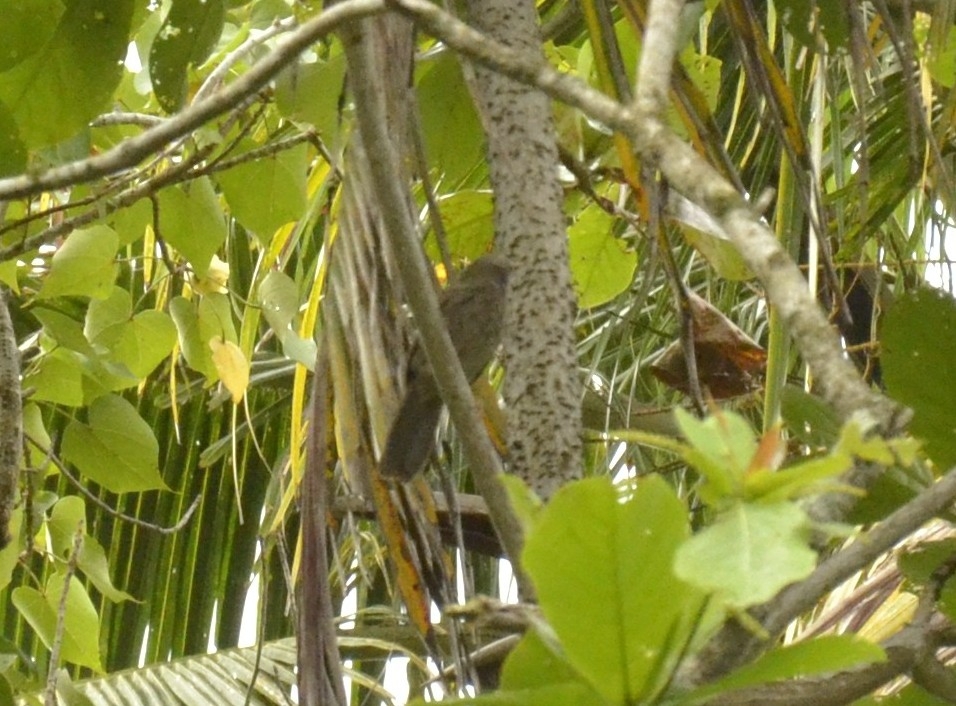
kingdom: Animalia
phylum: Chordata
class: Aves
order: Passeriformes
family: Leiothrichidae
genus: Turdoides
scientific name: Turdoides striata
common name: Jungle babbler
